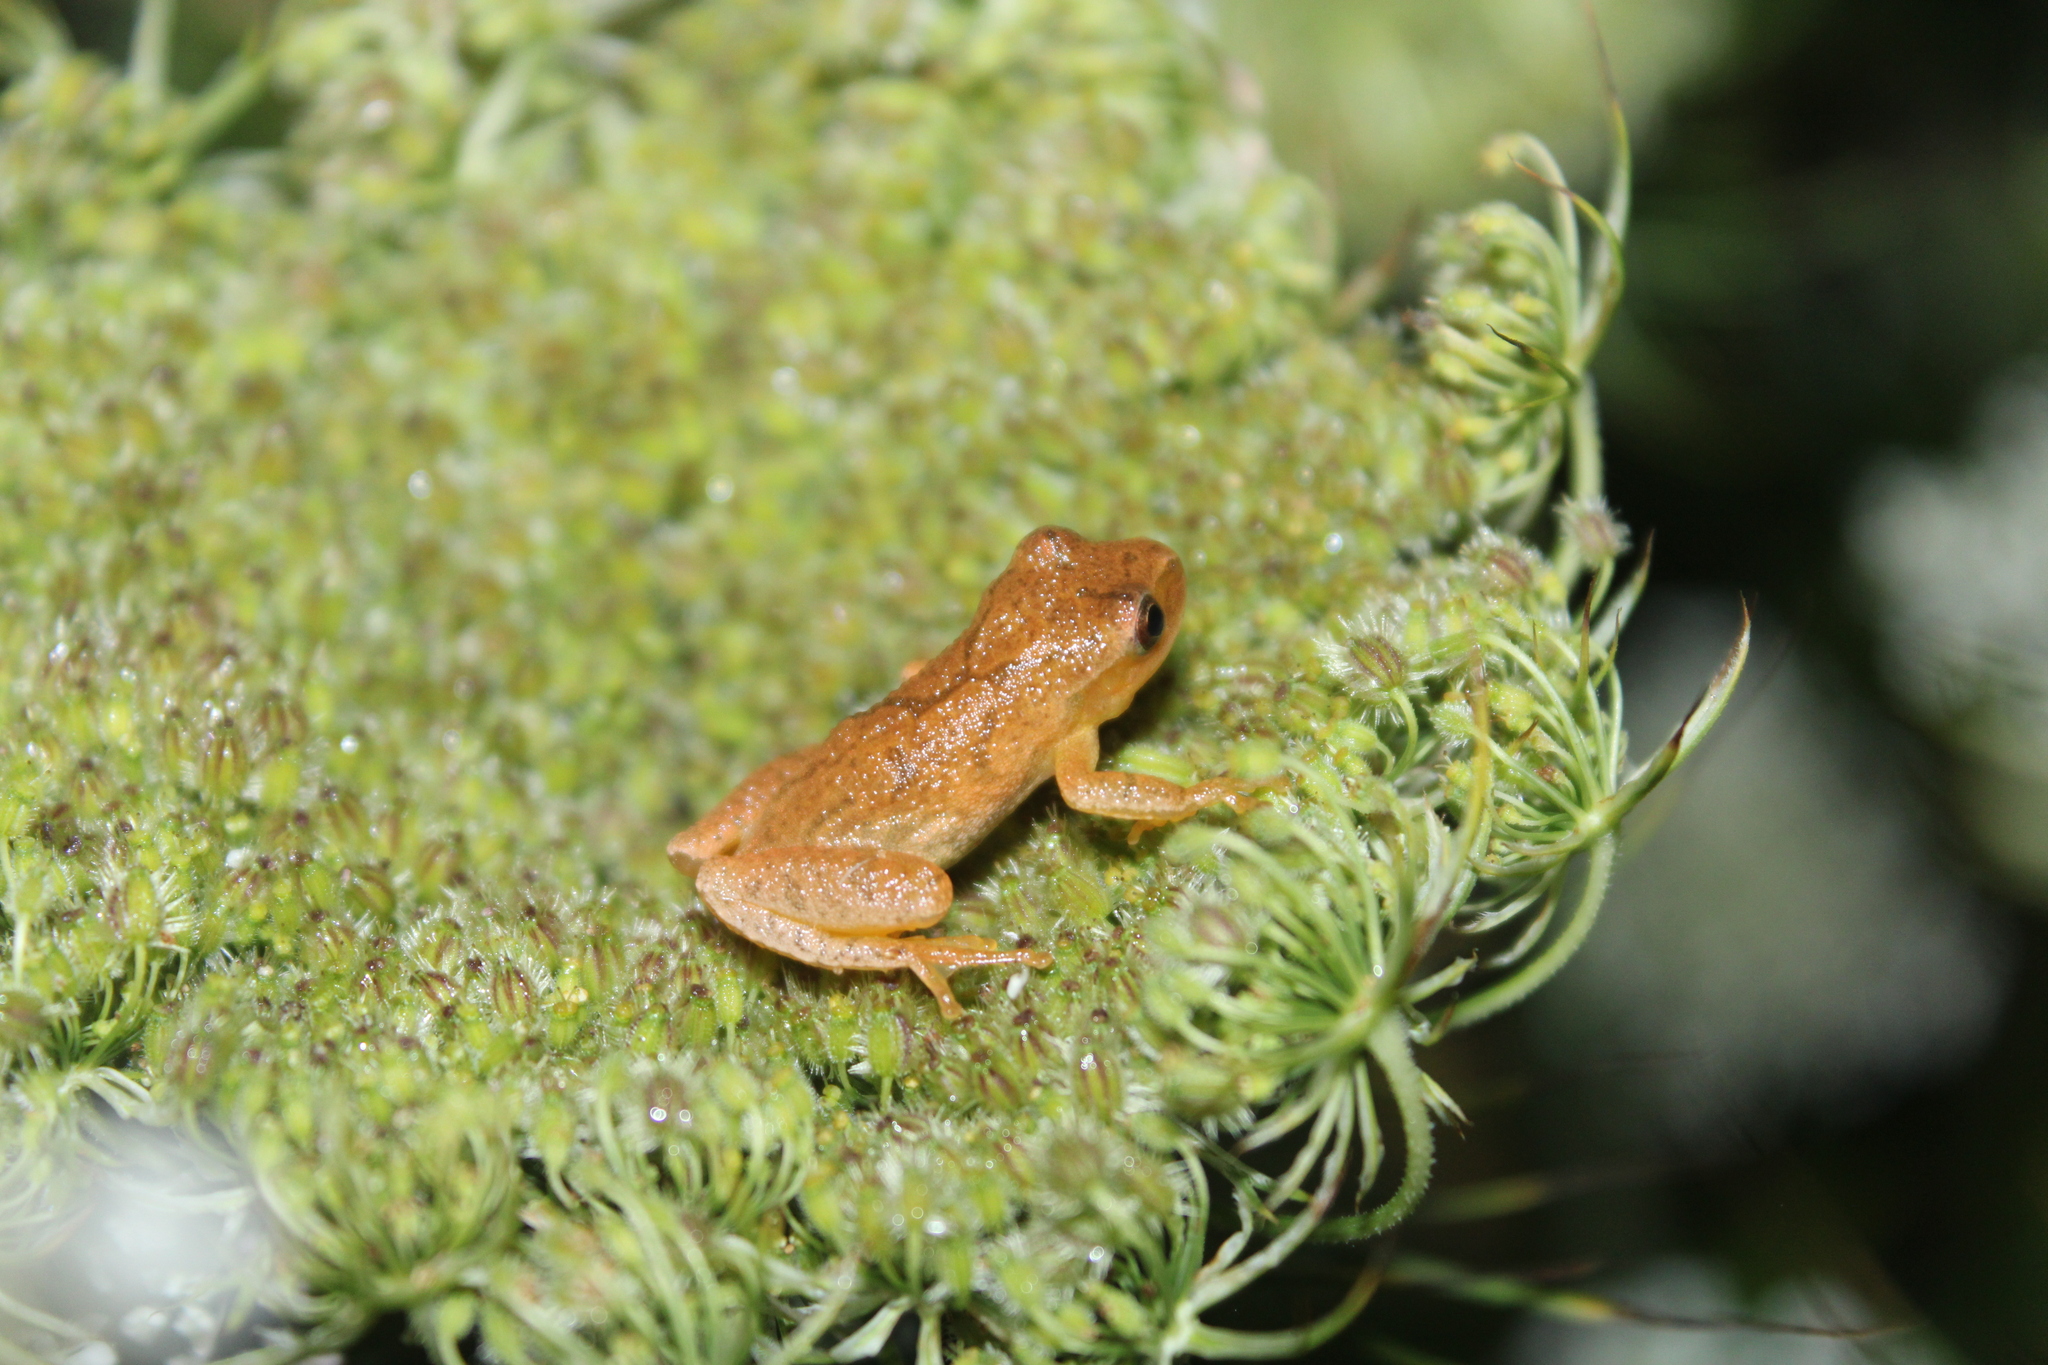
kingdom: Animalia
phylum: Chordata
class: Amphibia
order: Anura
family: Hylidae
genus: Pseudacris
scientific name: Pseudacris crucifer
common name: Spring peeper
